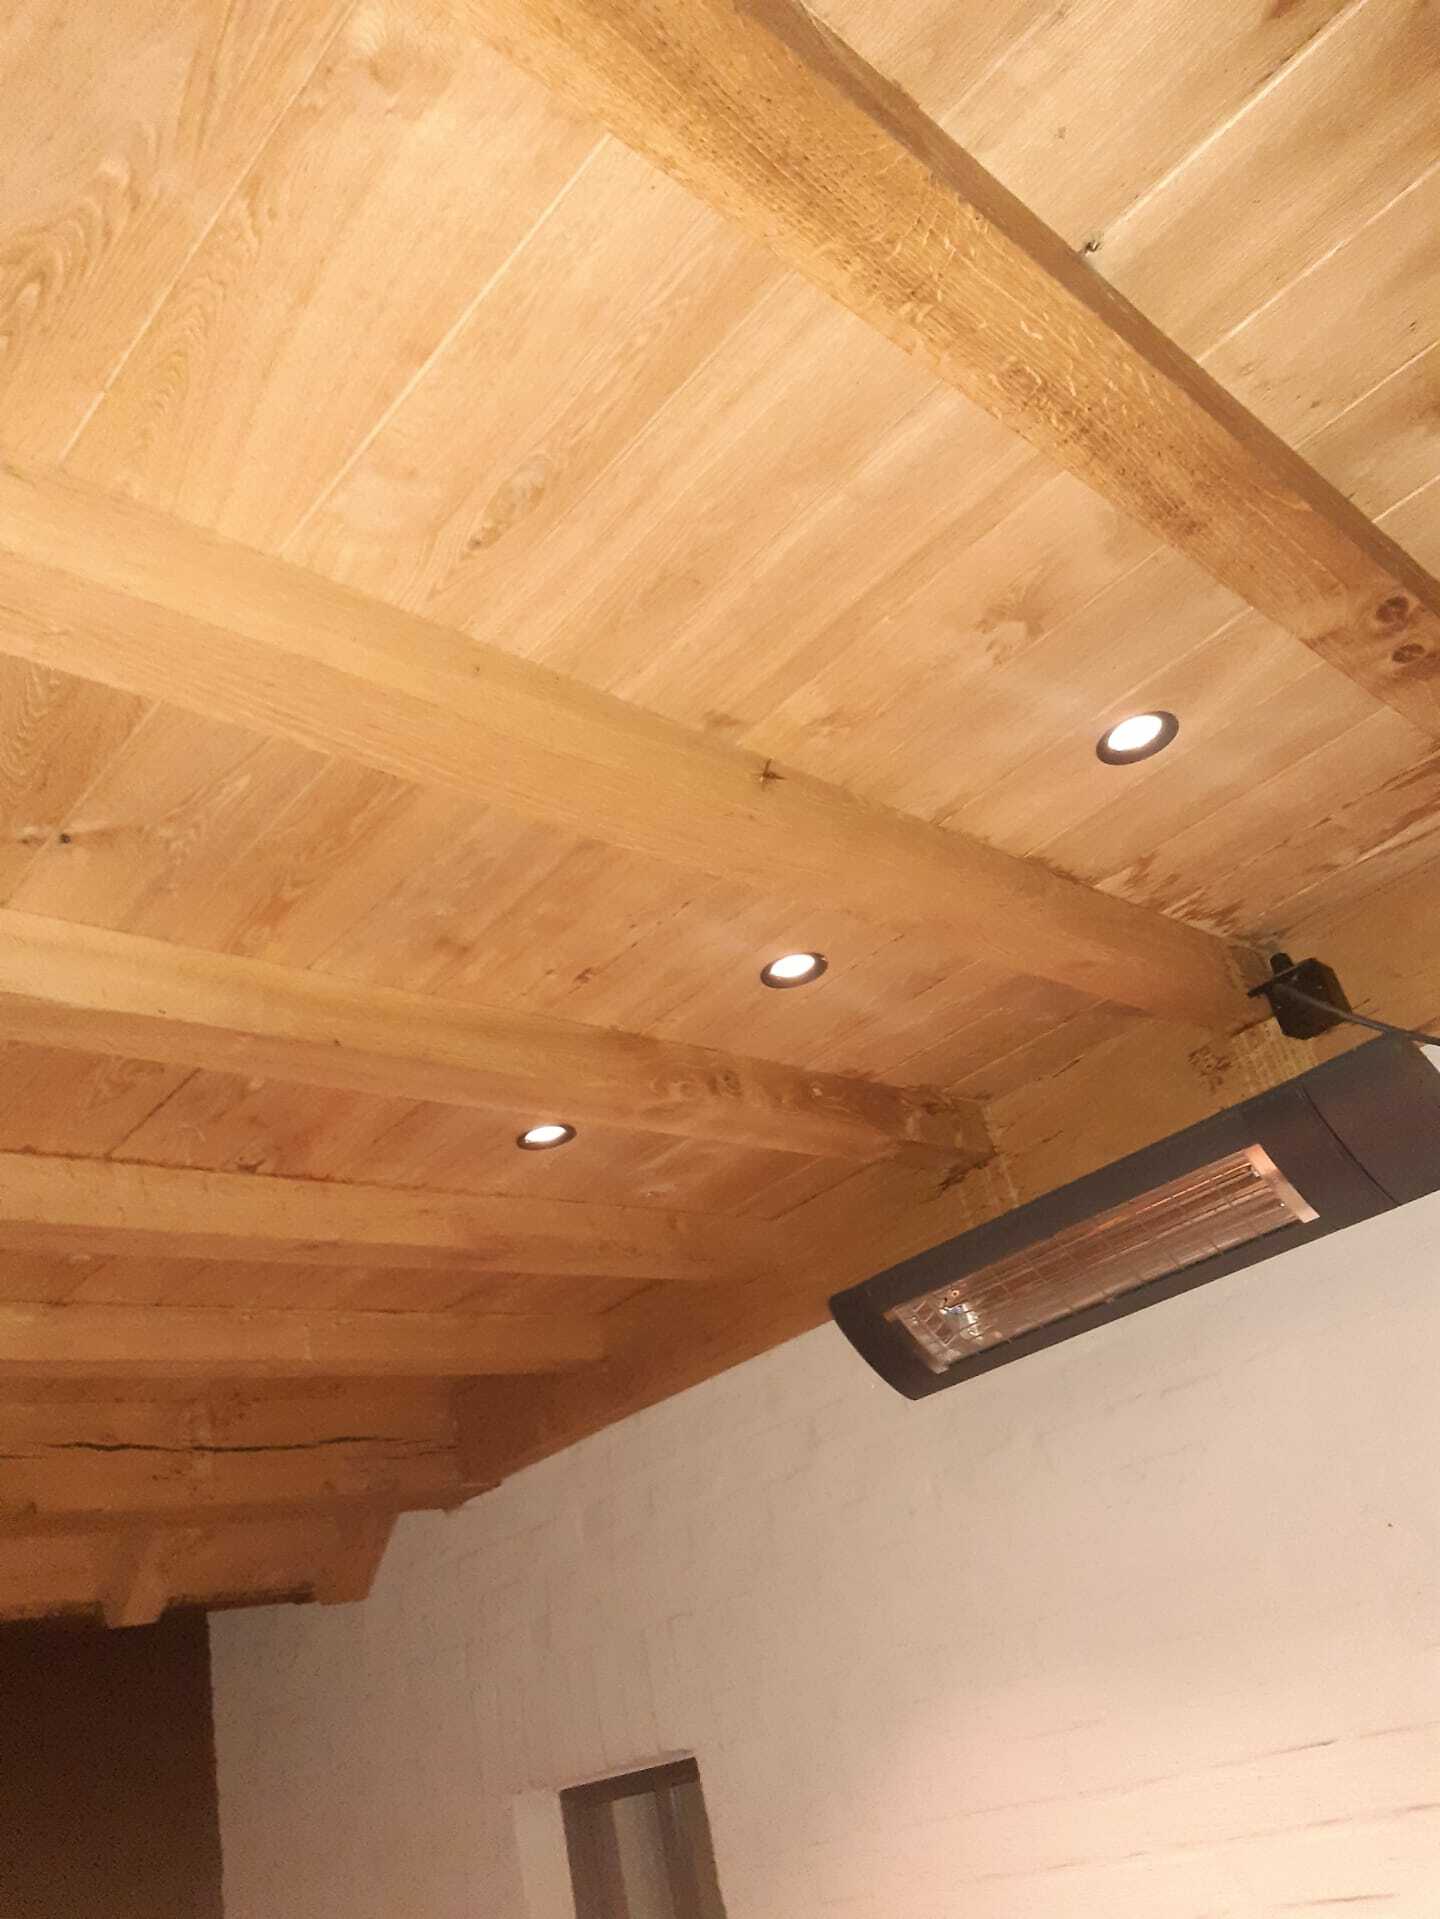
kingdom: Animalia
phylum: Arthropoda
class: Insecta
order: Hymenoptera
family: Vespidae
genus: Vespa
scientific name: Vespa velutina
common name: Asian hornet
